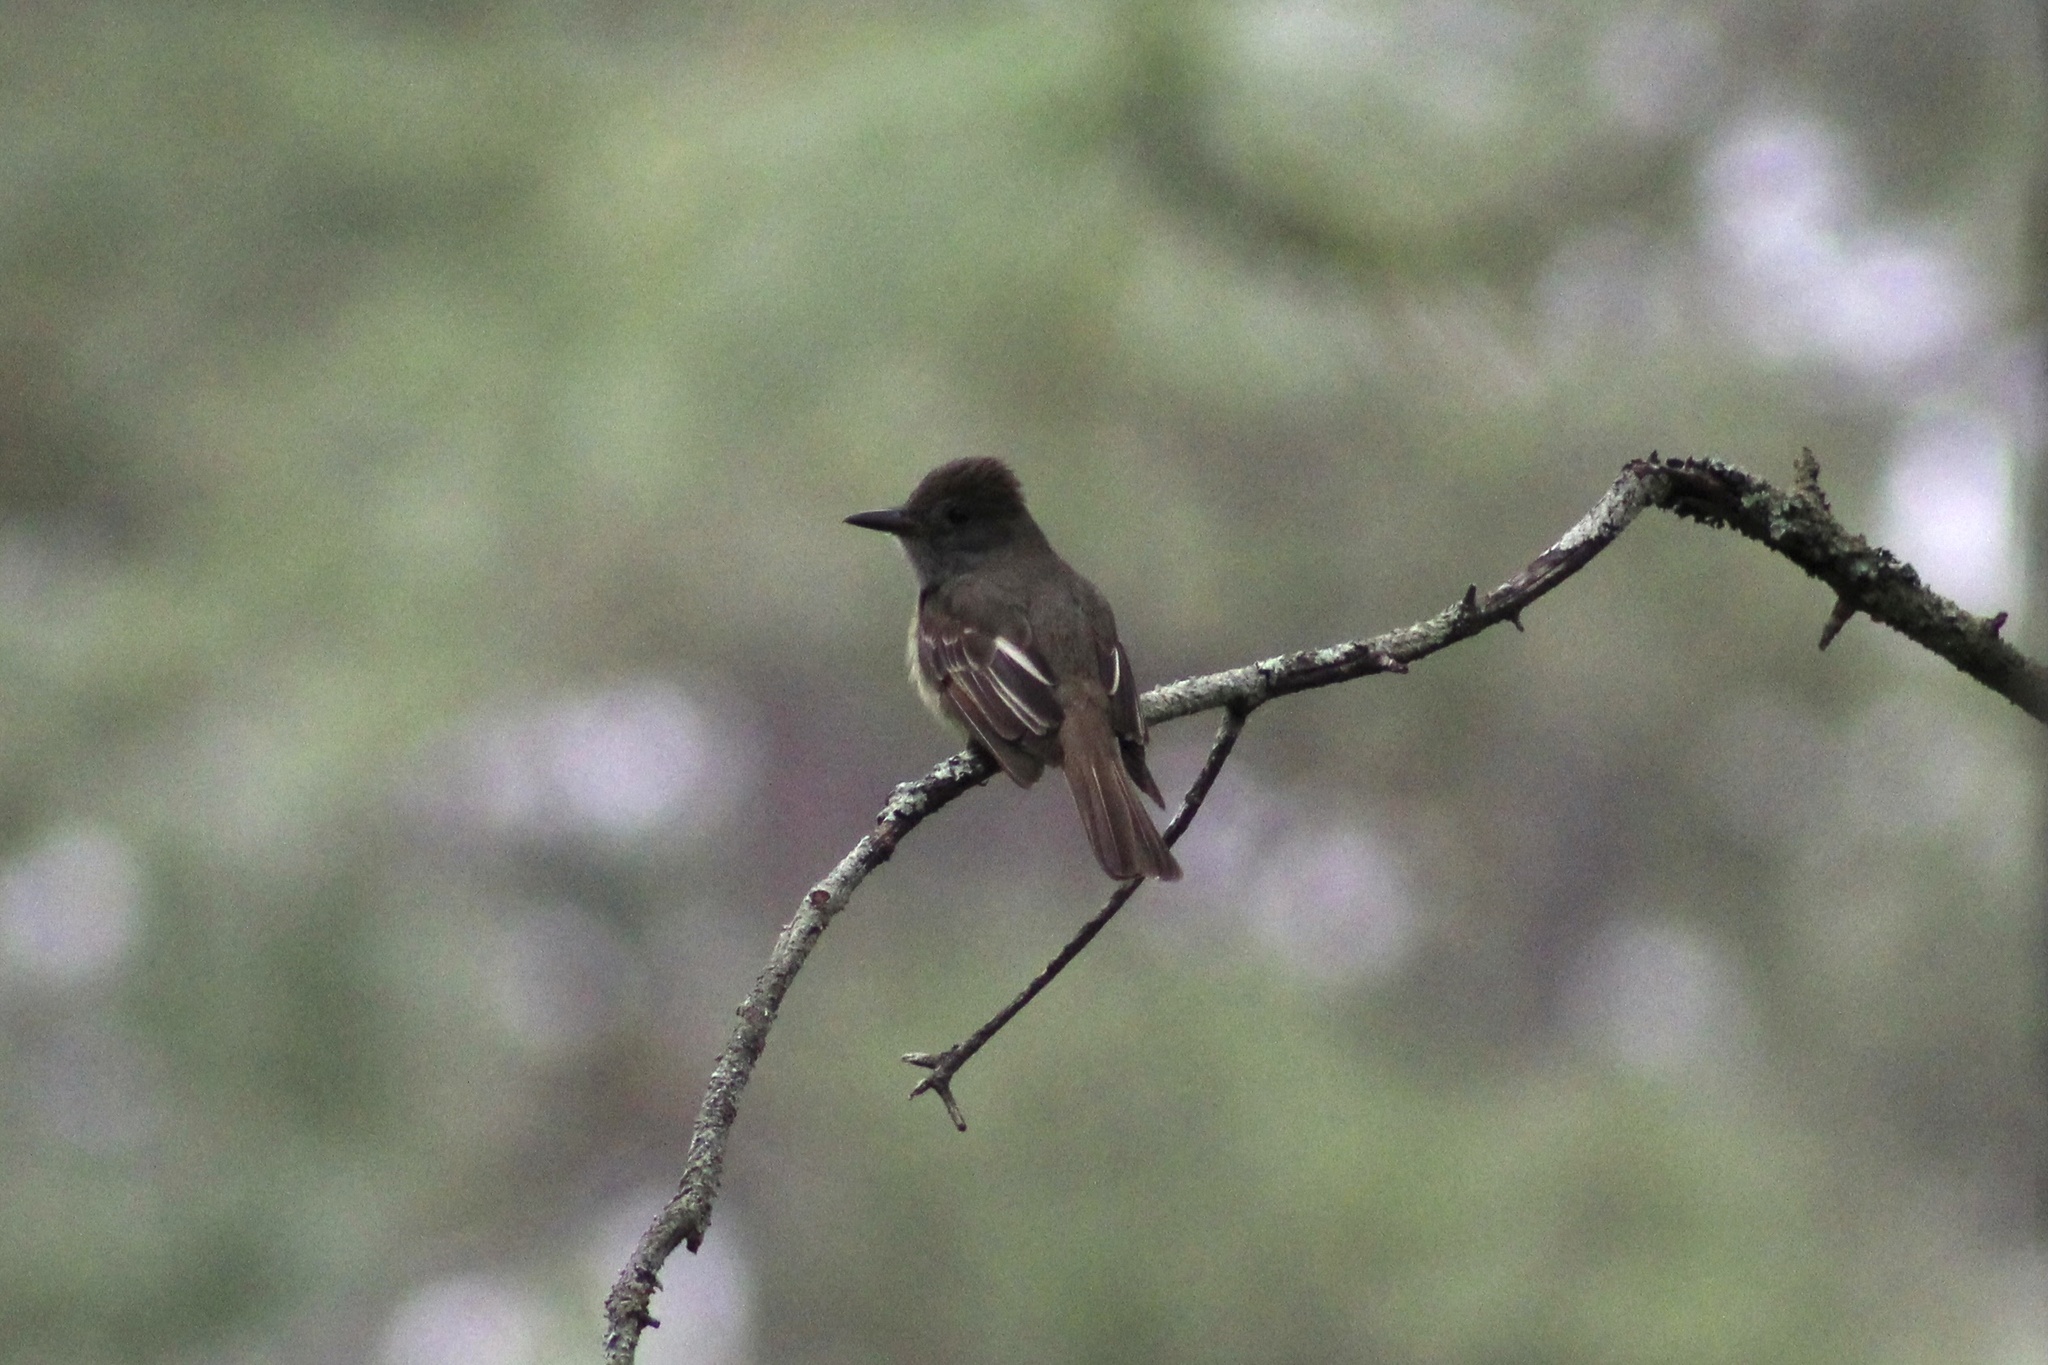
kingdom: Animalia
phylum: Chordata
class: Aves
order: Passeriformes
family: Tyrannidae
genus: Myiarchus
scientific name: Myiarchus crinitus
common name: Great crested flycatcher
